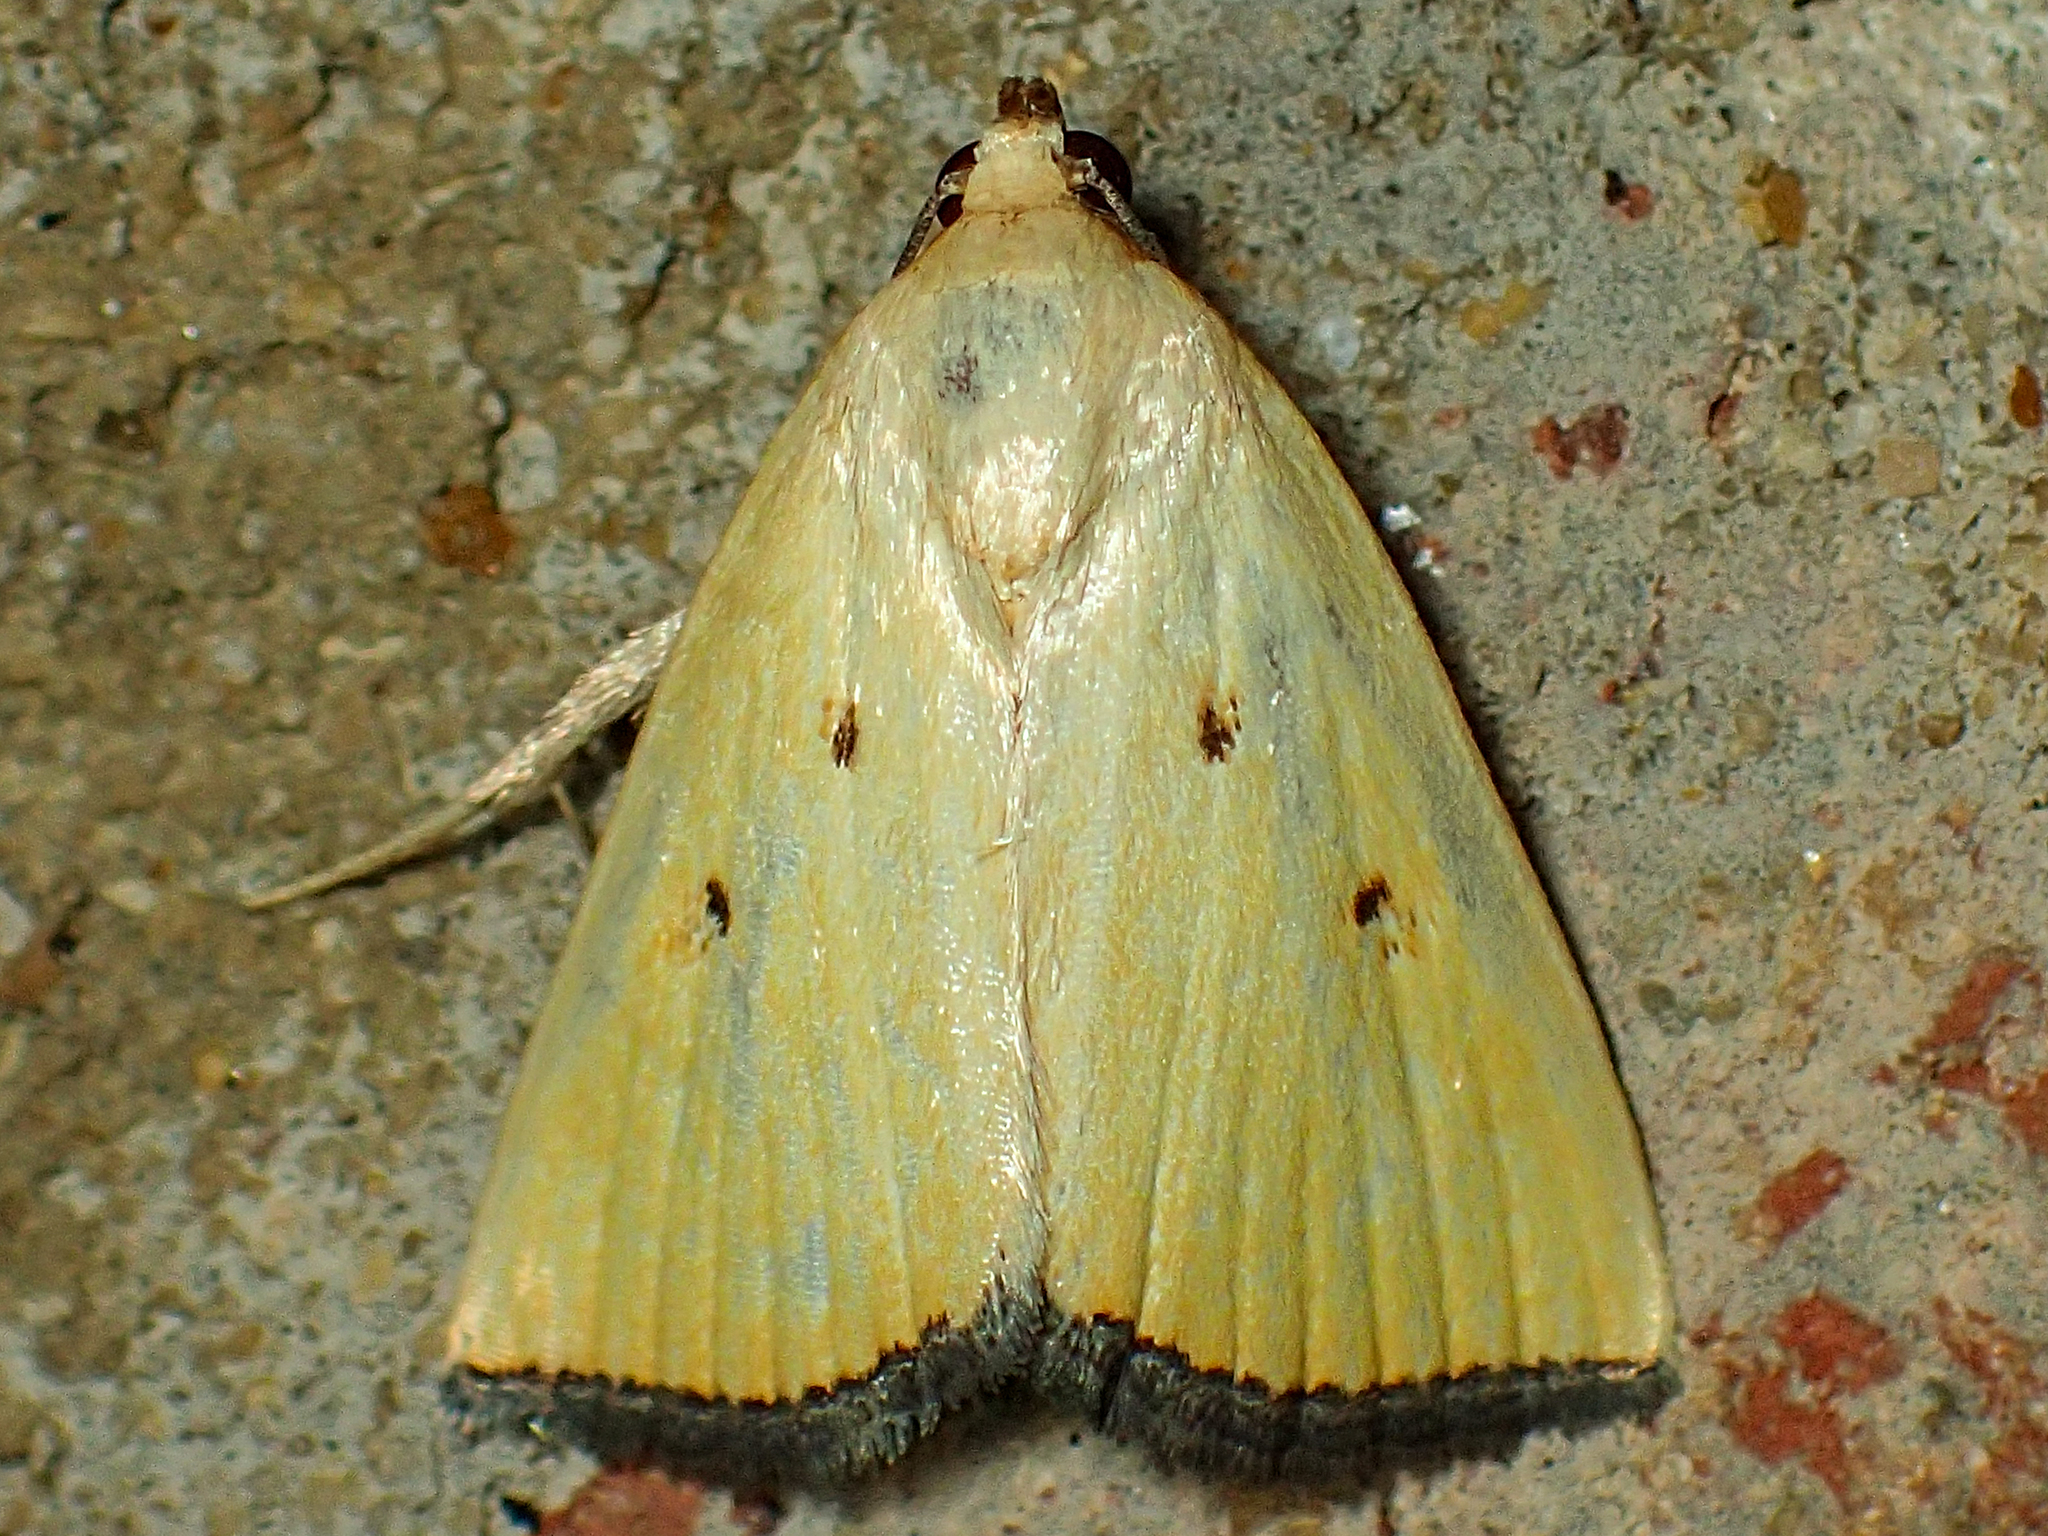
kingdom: Animalia
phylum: Arthropoda
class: Insecta
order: Lepidoptera
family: Noctuidae
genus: Marimatha
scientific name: Marimatha nigrofimbria
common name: Black-bordered lemon moth
